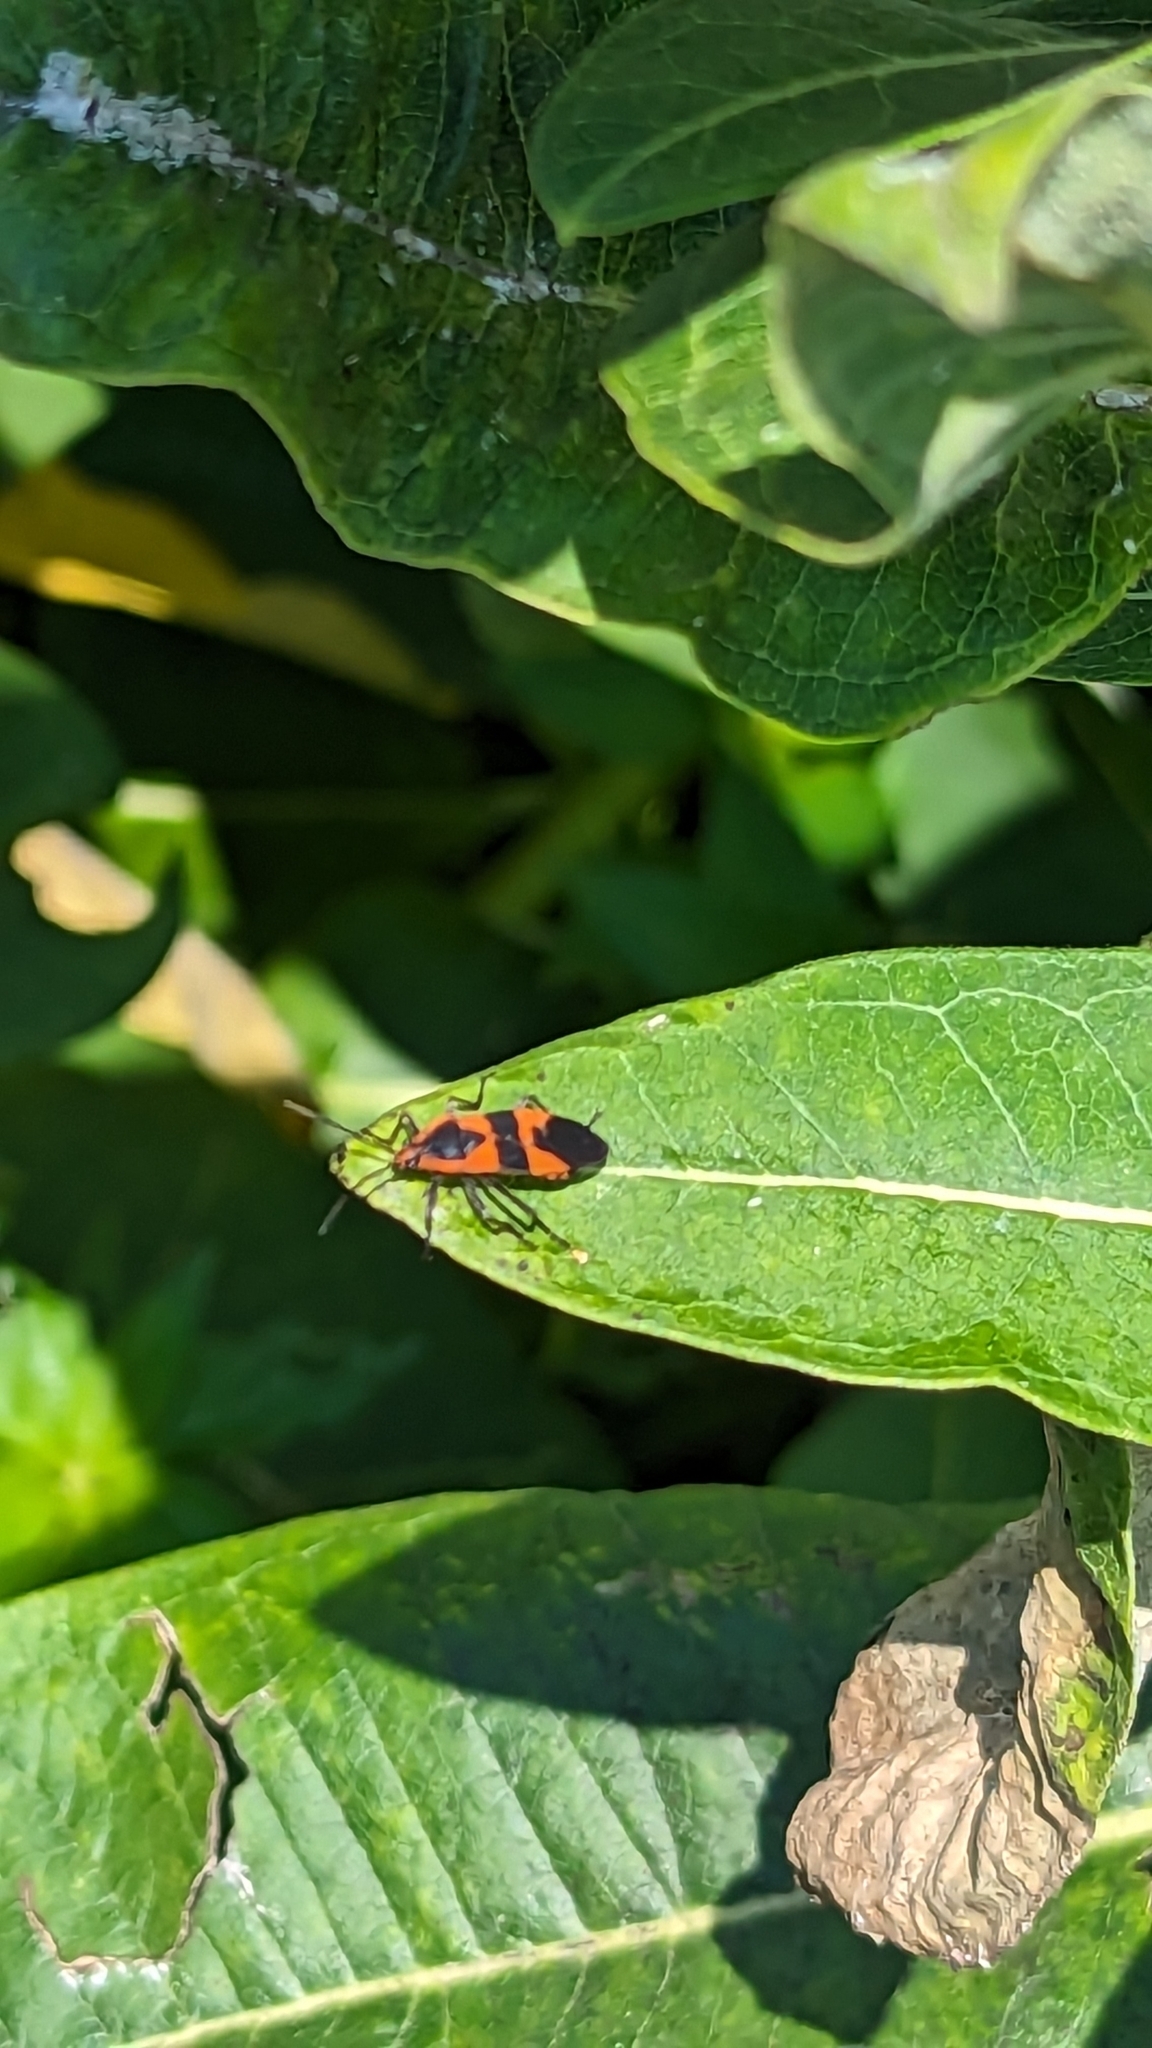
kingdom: Animalia
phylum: Arthropoda
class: Insecta
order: Hemiptera
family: Lygaeidae
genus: Oncopeltus
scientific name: Oncopeltus fasciatus
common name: Large milkweed bug
